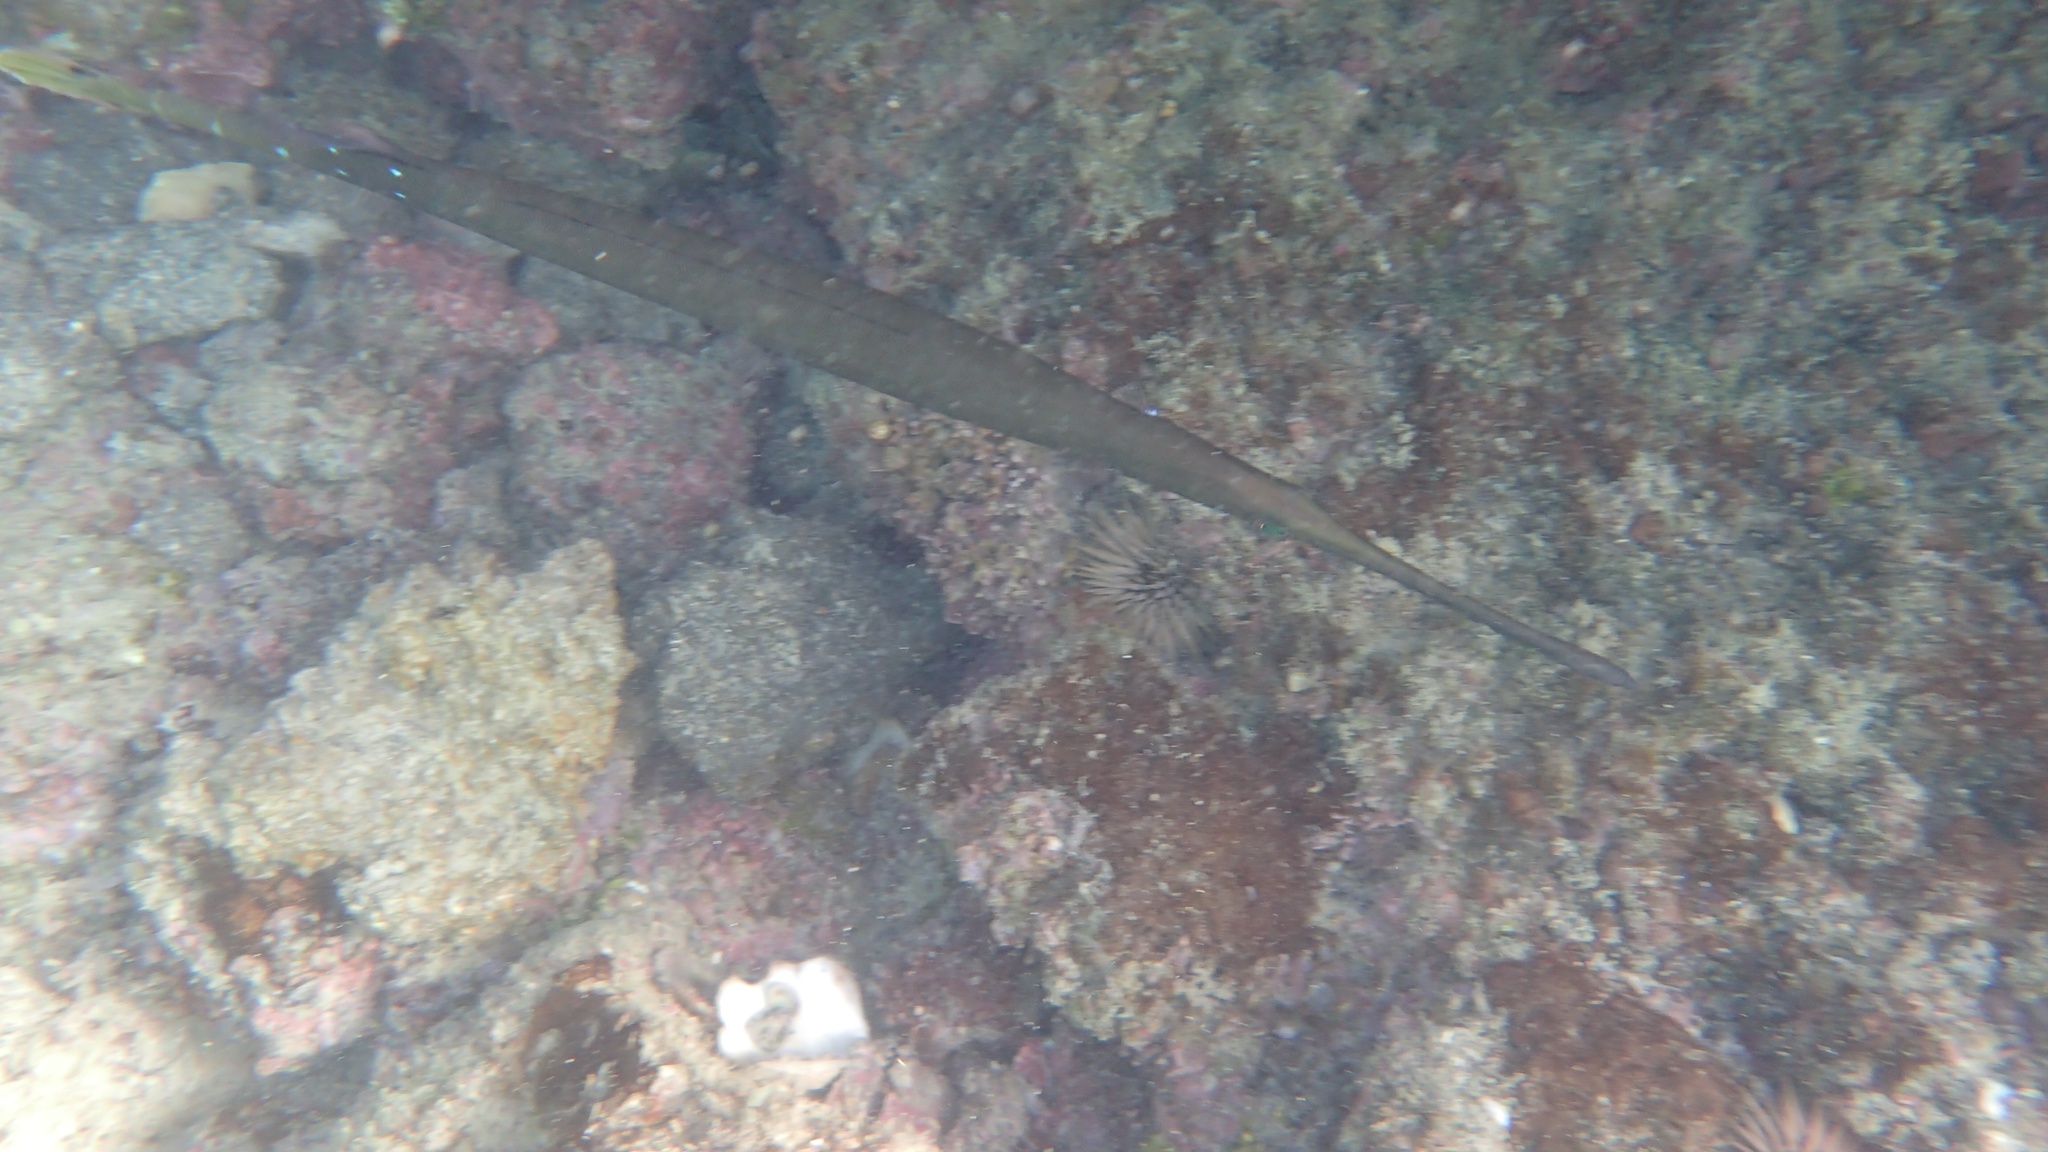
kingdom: Animalia
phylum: Chordata
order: Syngnathiformes
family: Aulostomidae
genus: Aulostomus
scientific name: Aulostomus chinensis
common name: Chinese trumpetfish
